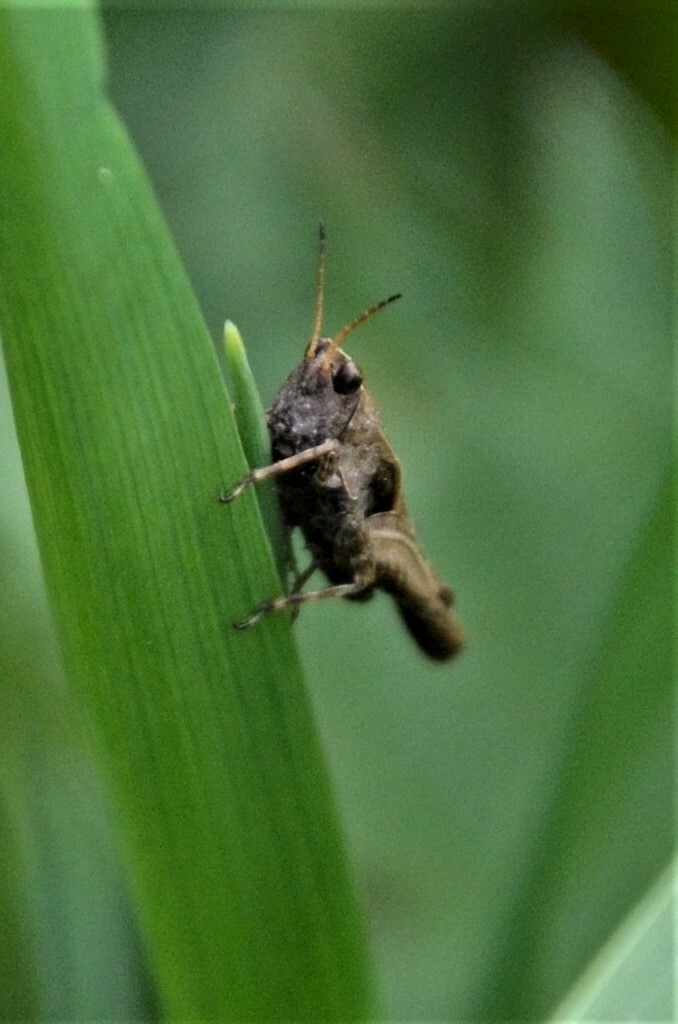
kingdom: Animalia
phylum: Arthropoda
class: Insecta
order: Orthoptera
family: Tetrigidae
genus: Tetrix
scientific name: Tetrix subulata
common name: Slender ground-hopper
